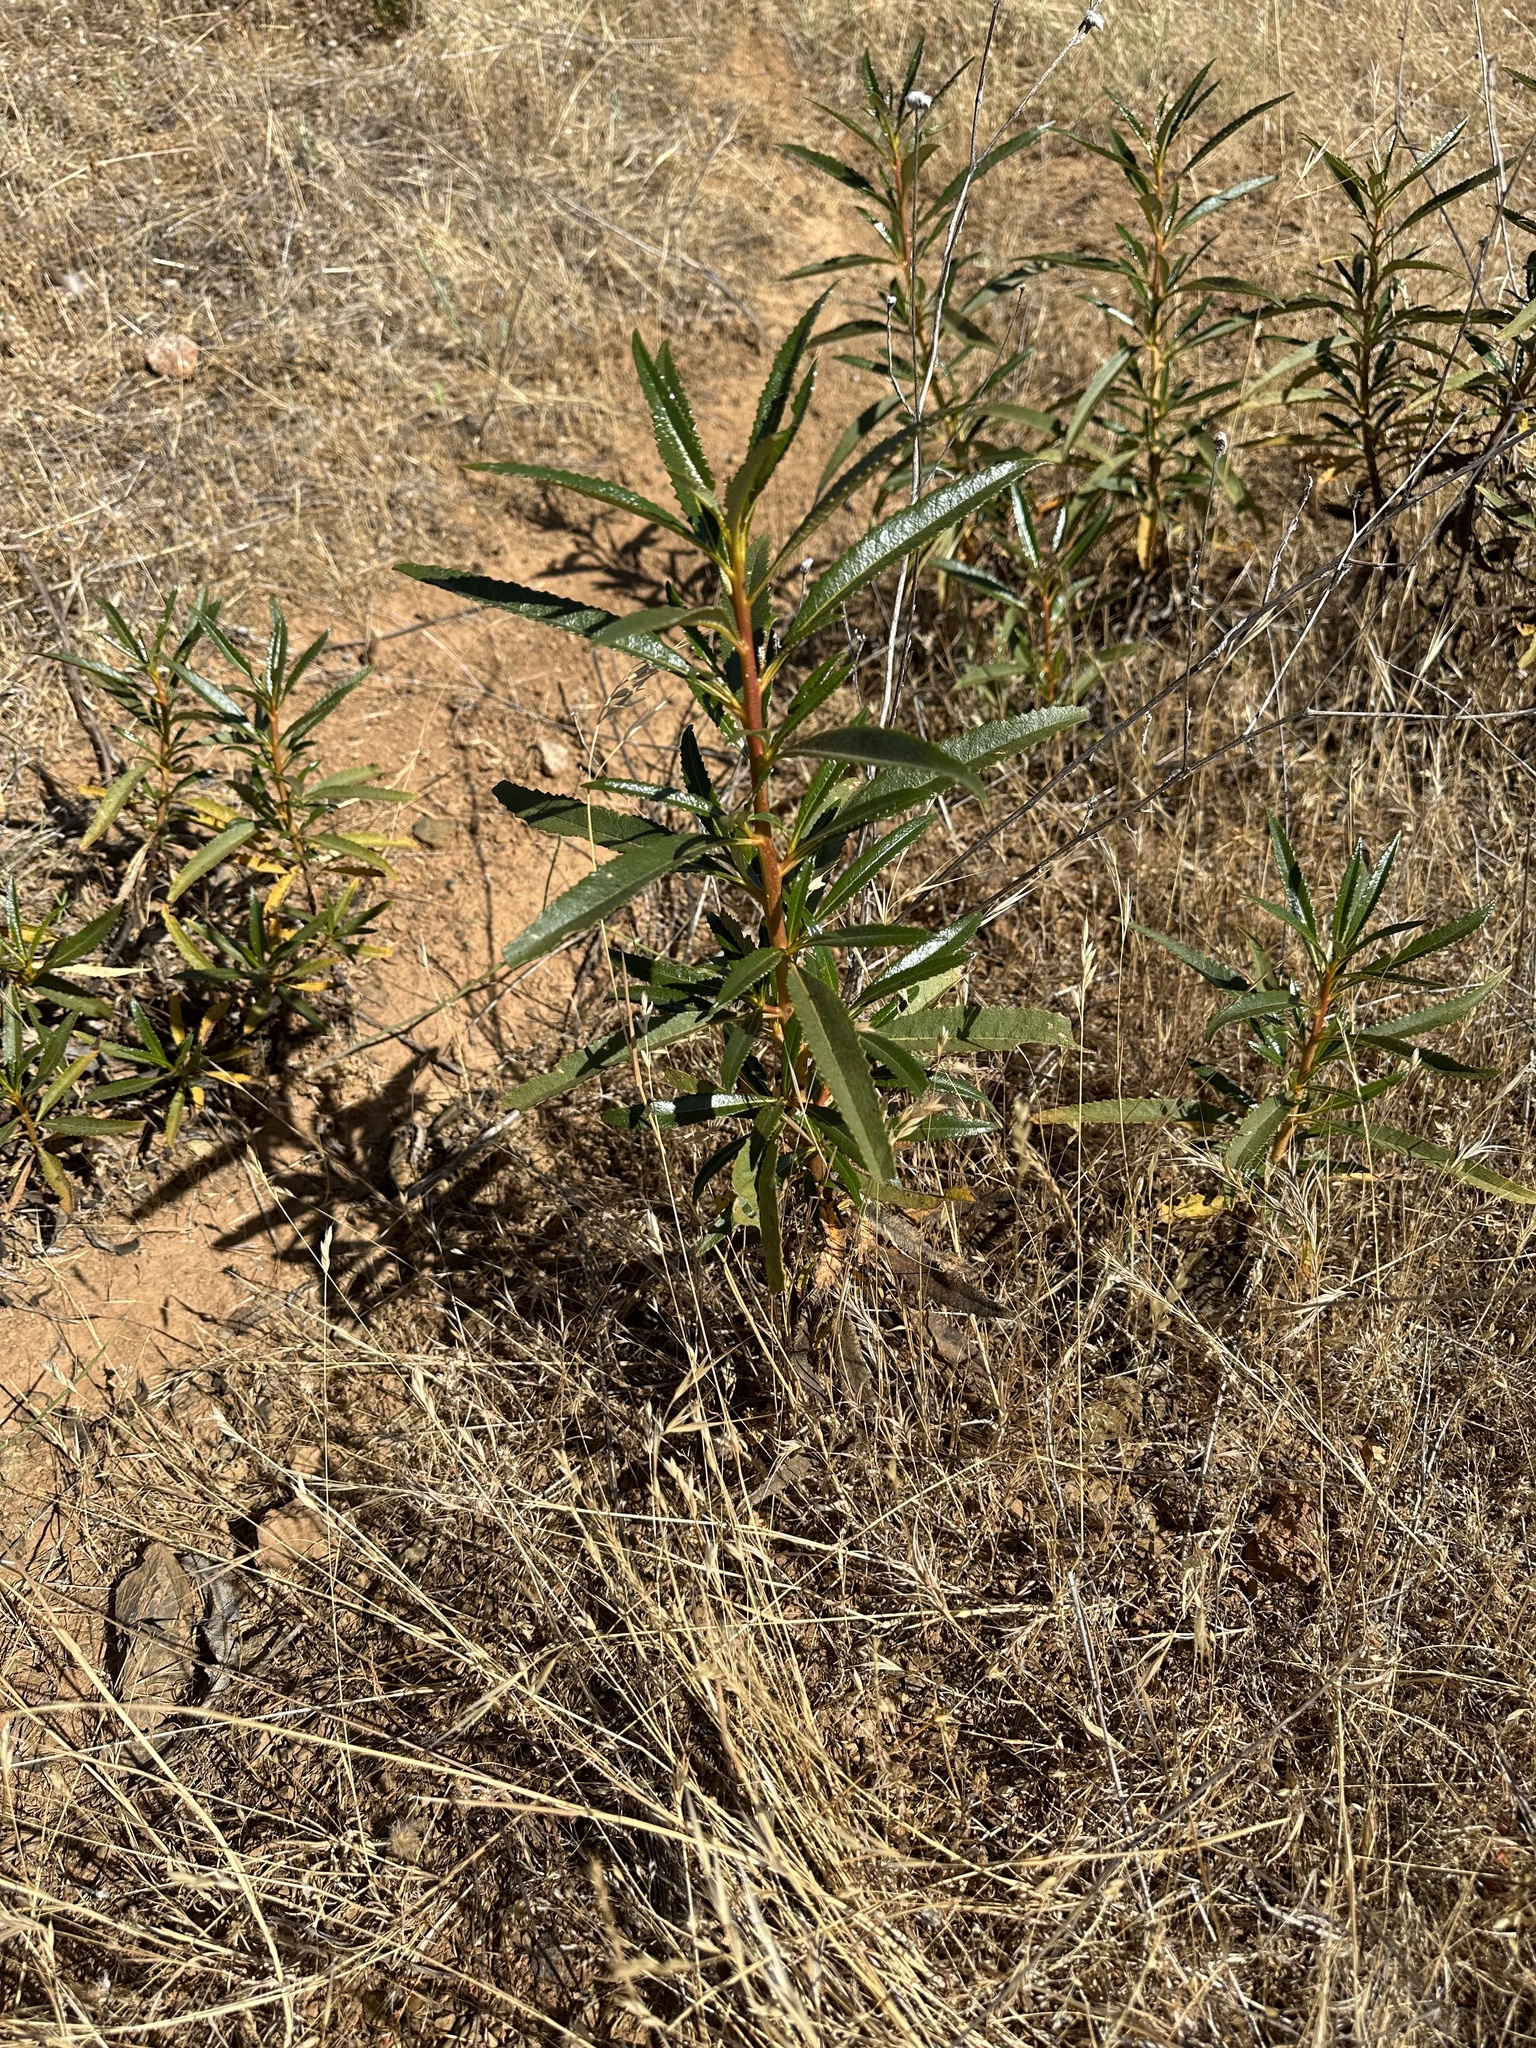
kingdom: Plantae
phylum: Tracheophyta
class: Magnoliopsida
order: Boraginales
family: Namaceae
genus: Eriodictyon
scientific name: Eriodictyon californicum
